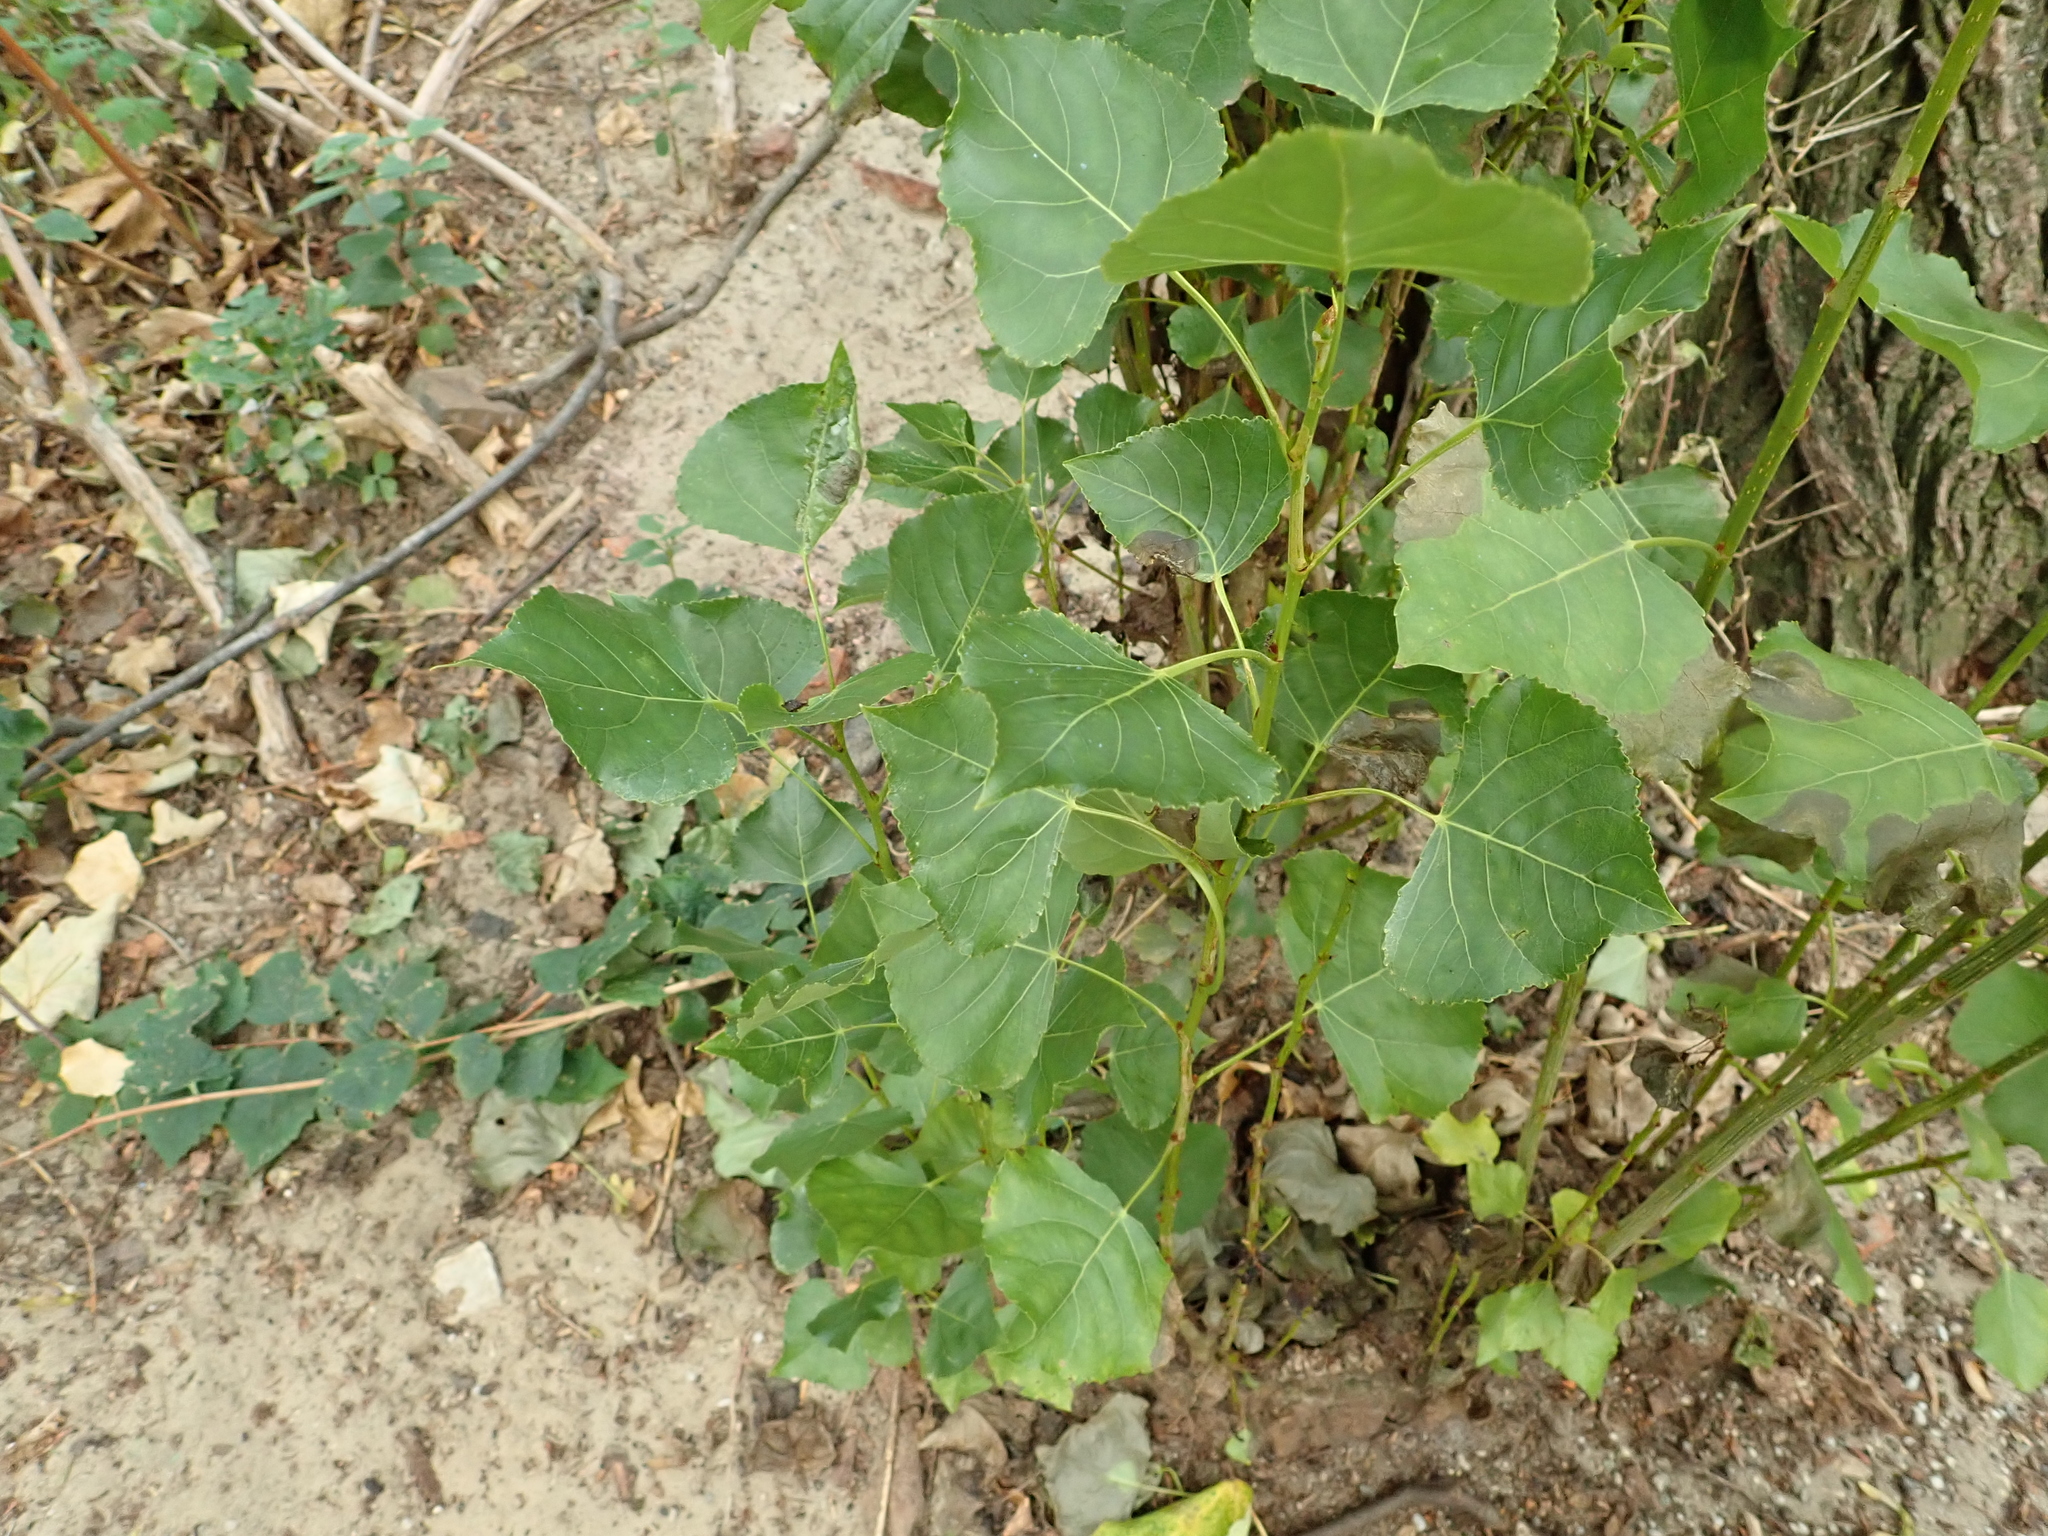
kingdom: Plantae
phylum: Tracheophyta
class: Magnoliopsida
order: Malpighiales
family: Salicaceae
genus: Populus
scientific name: Populus nigra
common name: Black poplar
